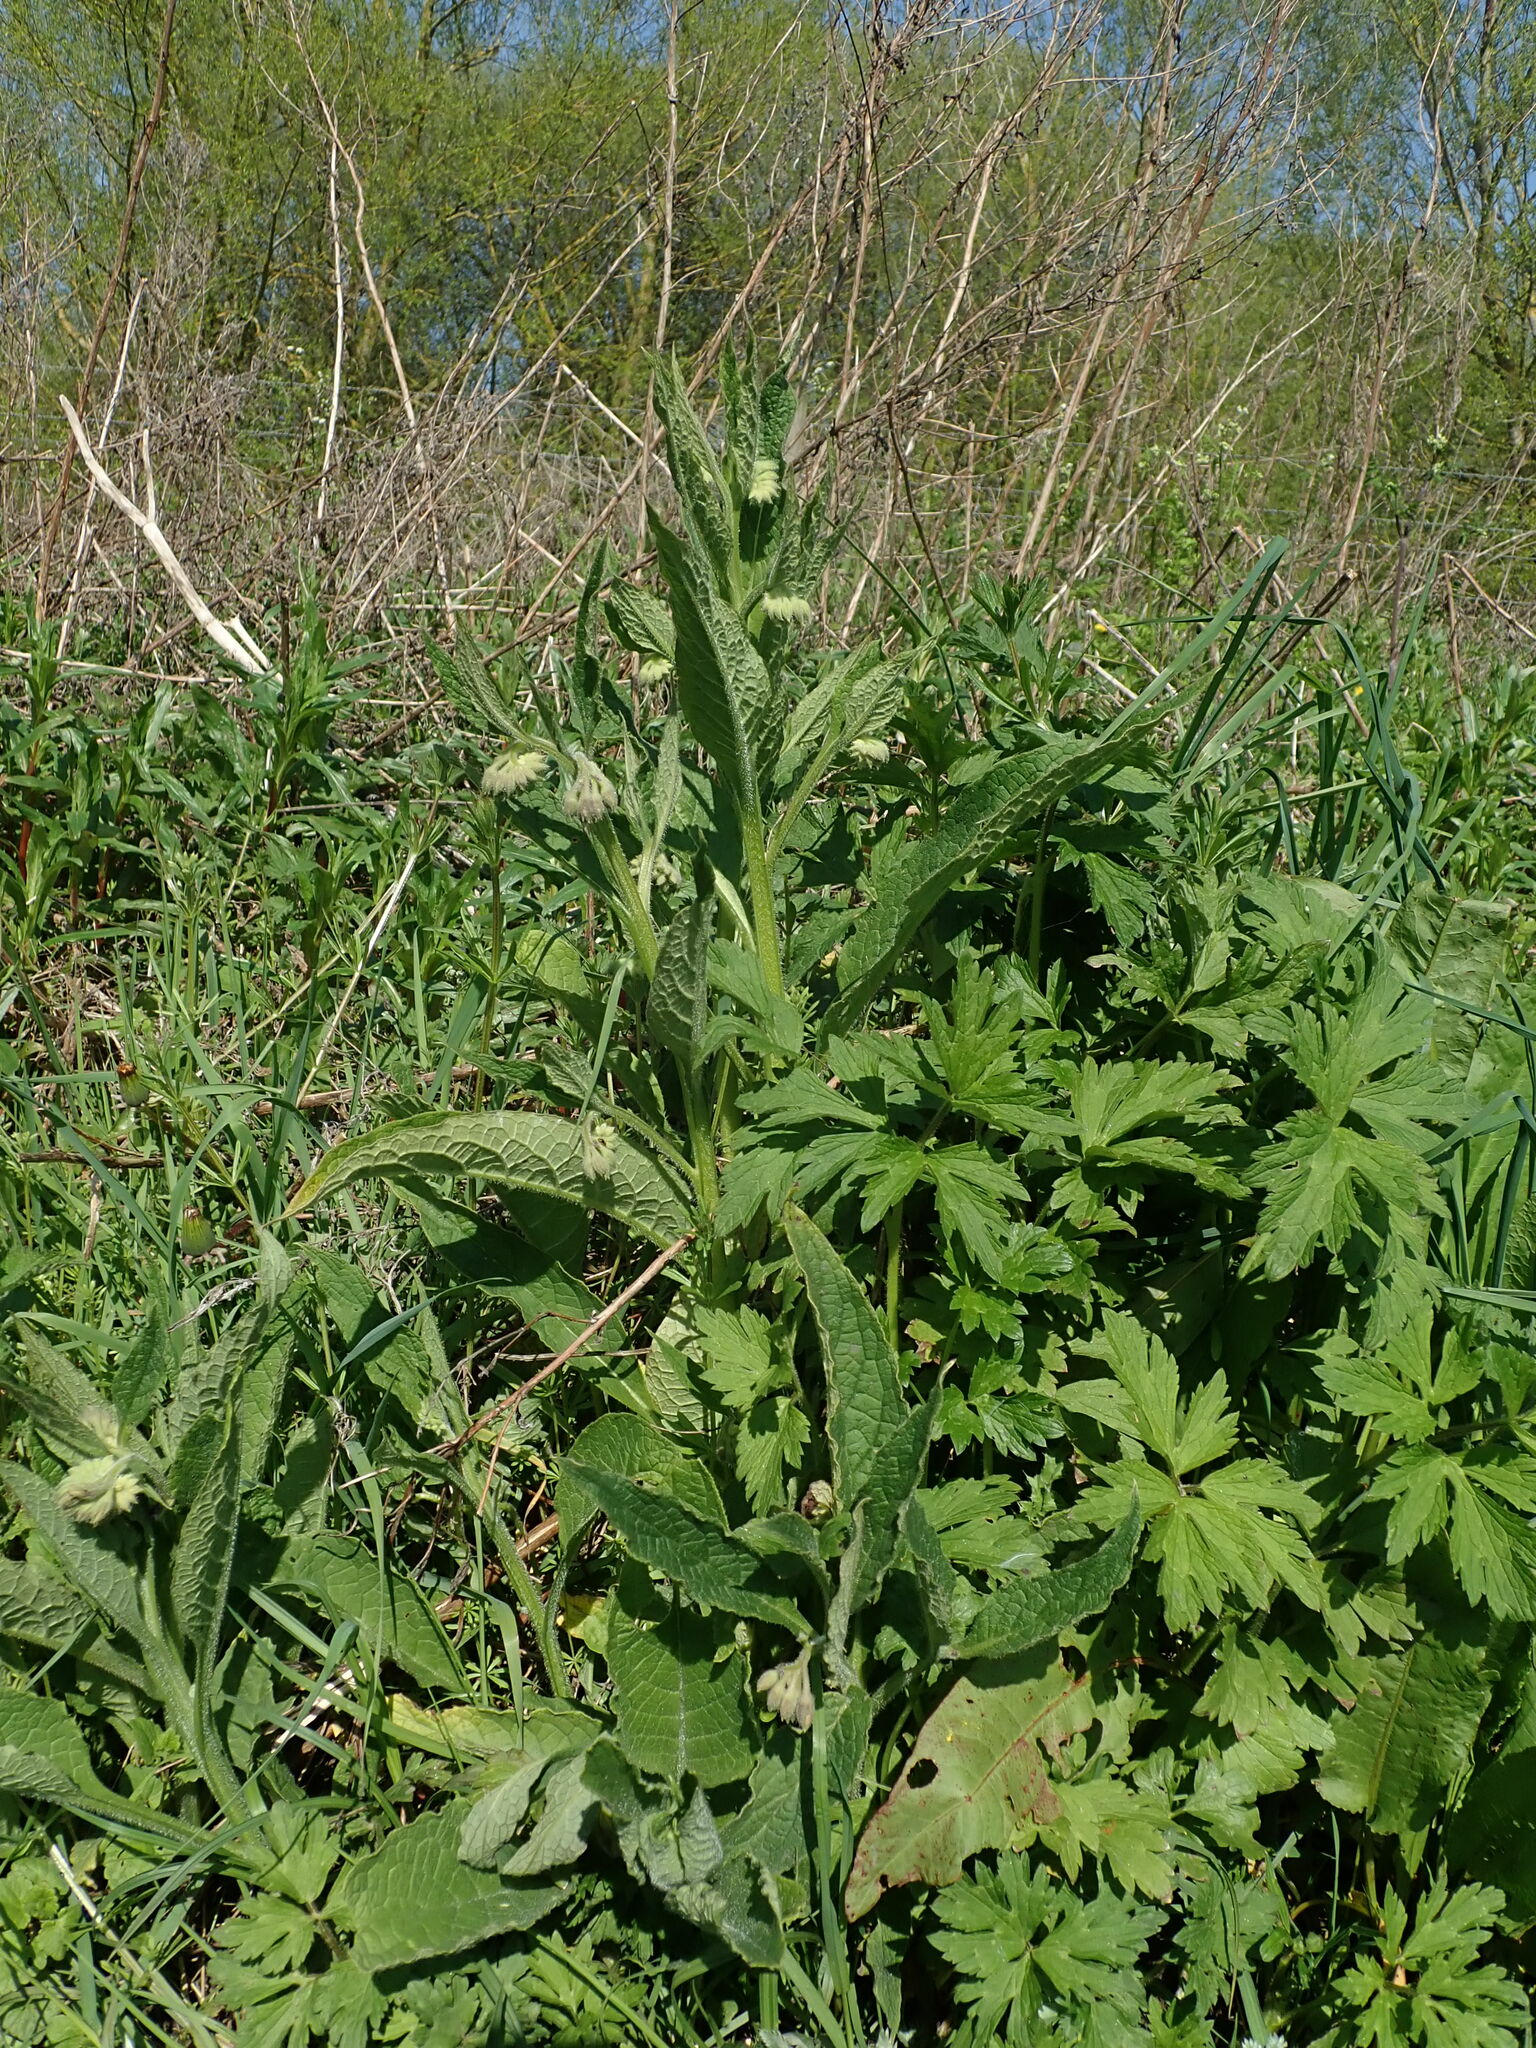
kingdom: Plantae
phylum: Tracheophyta
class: Magnoliopsida
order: Boraginales
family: Boraginaceae
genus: Symphytum
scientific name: Symphytum officinale
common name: Common comfrey
